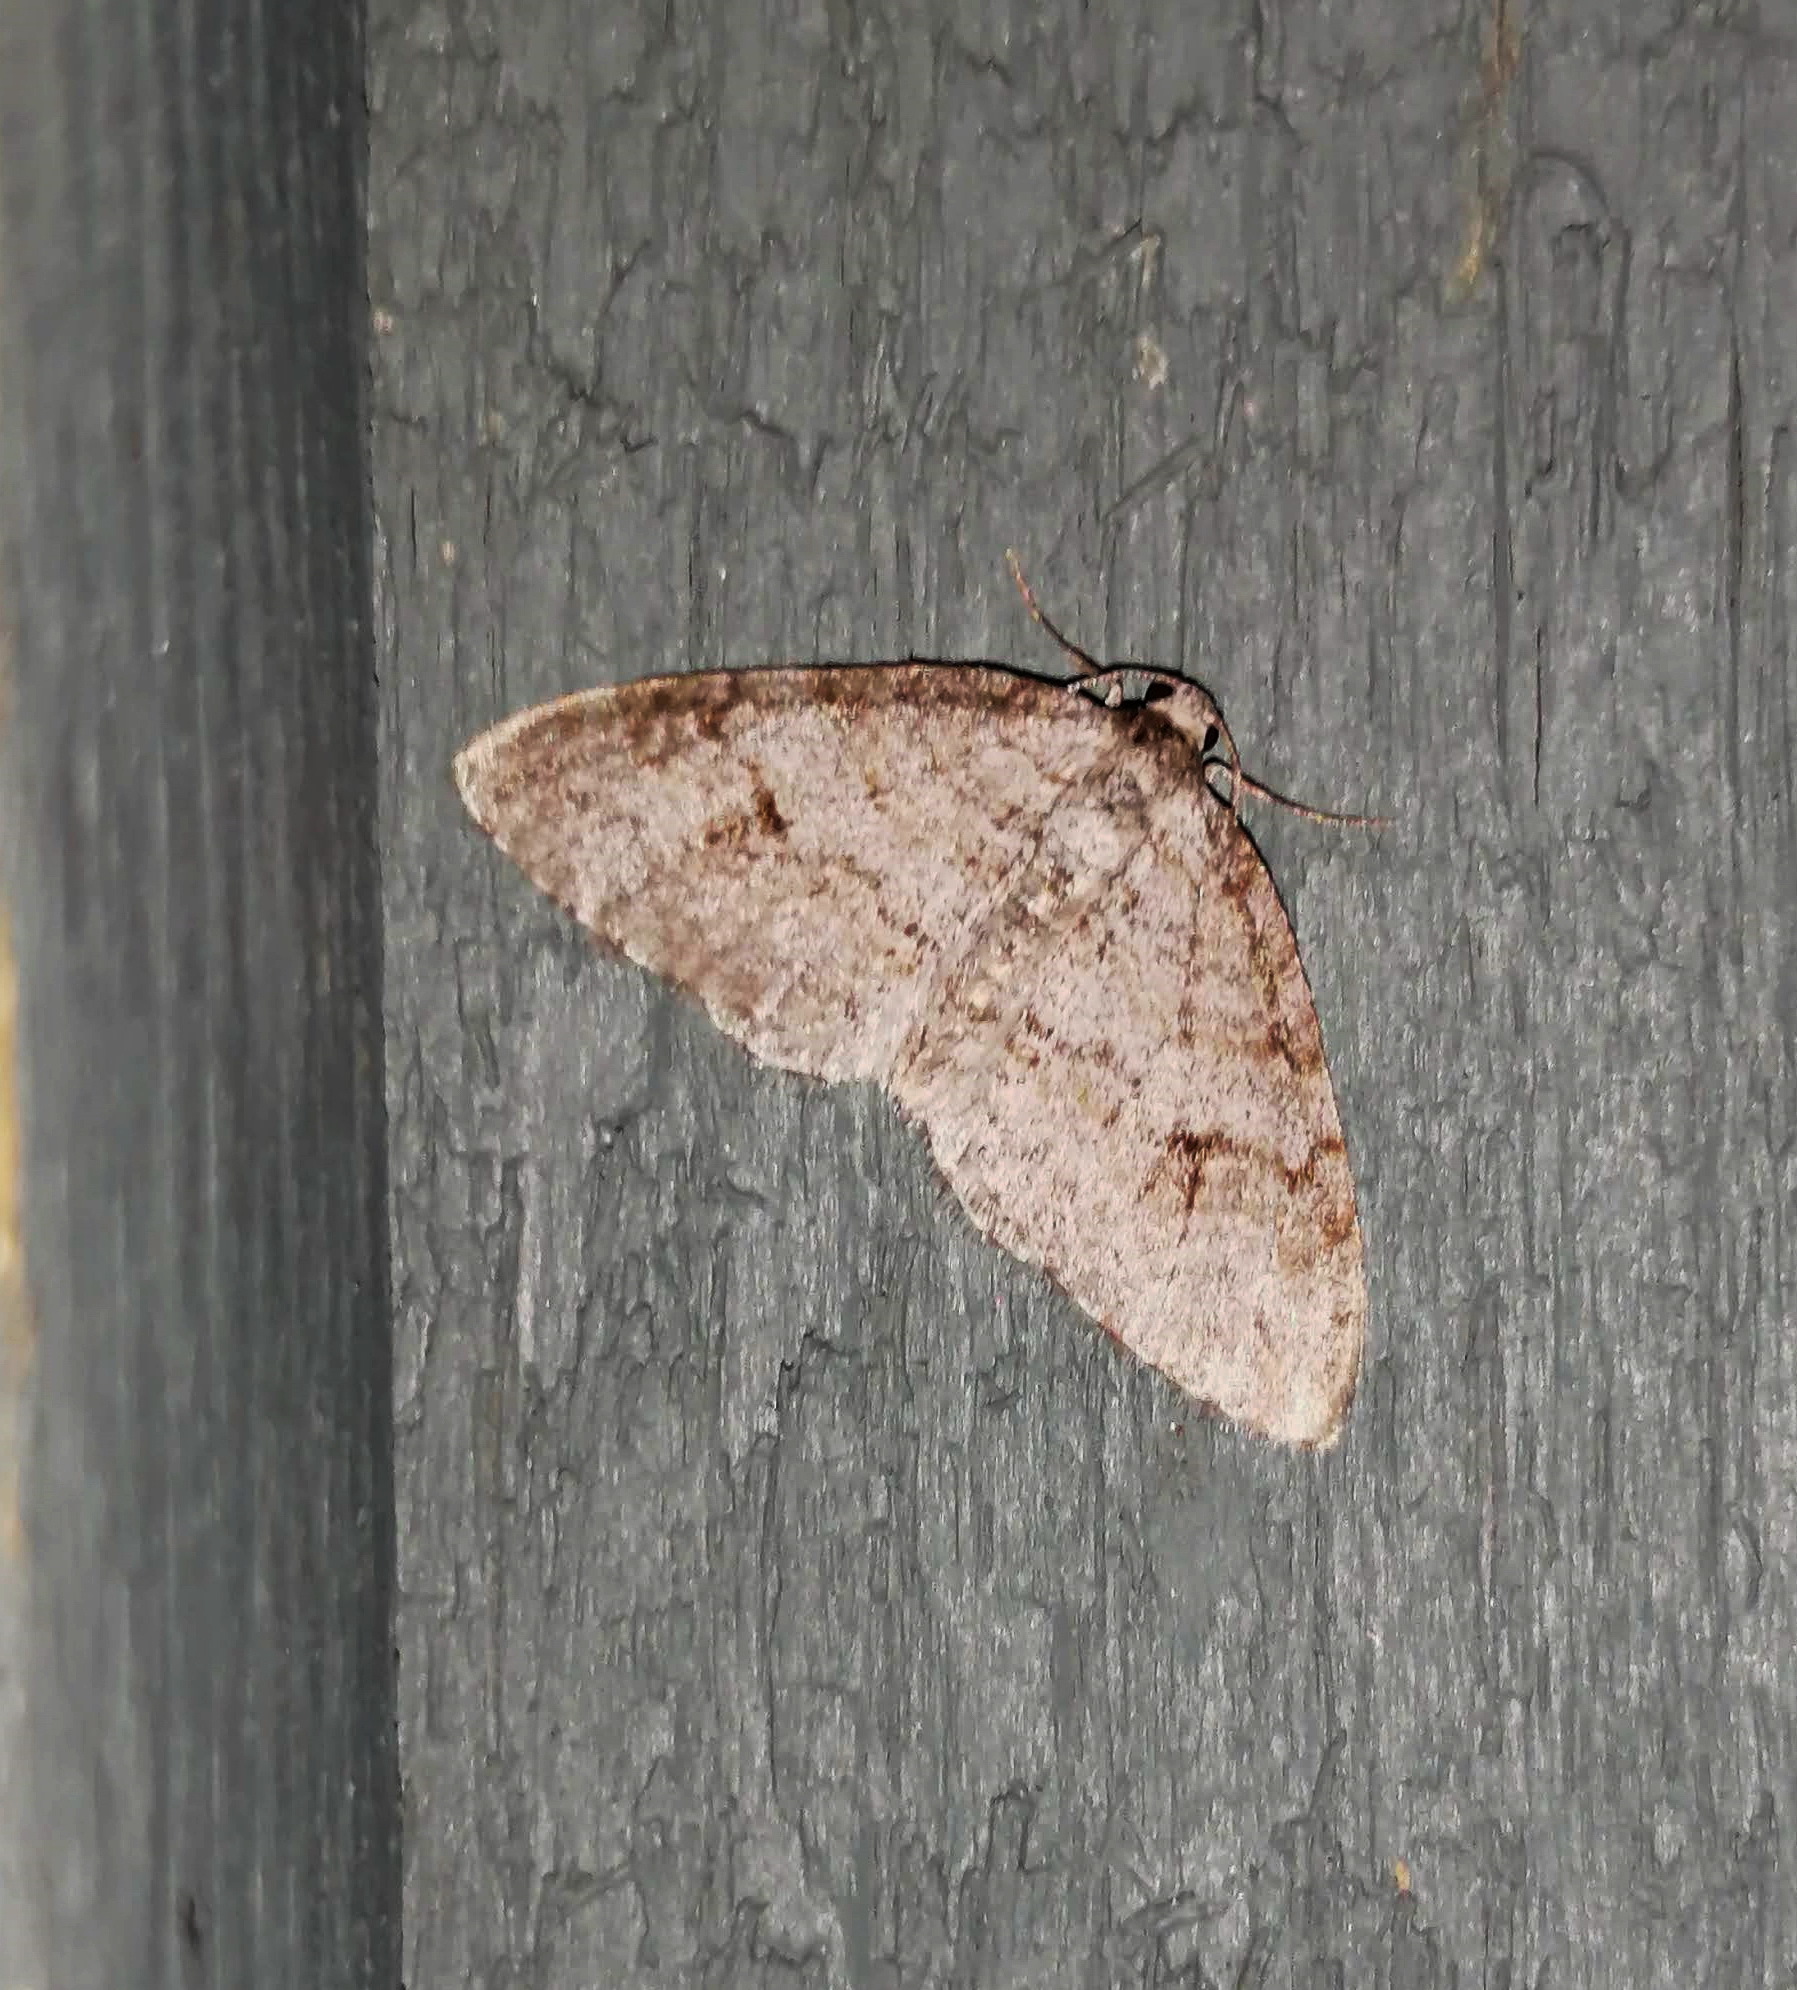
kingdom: Animalia
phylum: Arthropoda
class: Insecta
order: Lepidoptera
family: Geometridae
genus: Venusia
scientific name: Venusia comptaria
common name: Brown-shaded carpet
